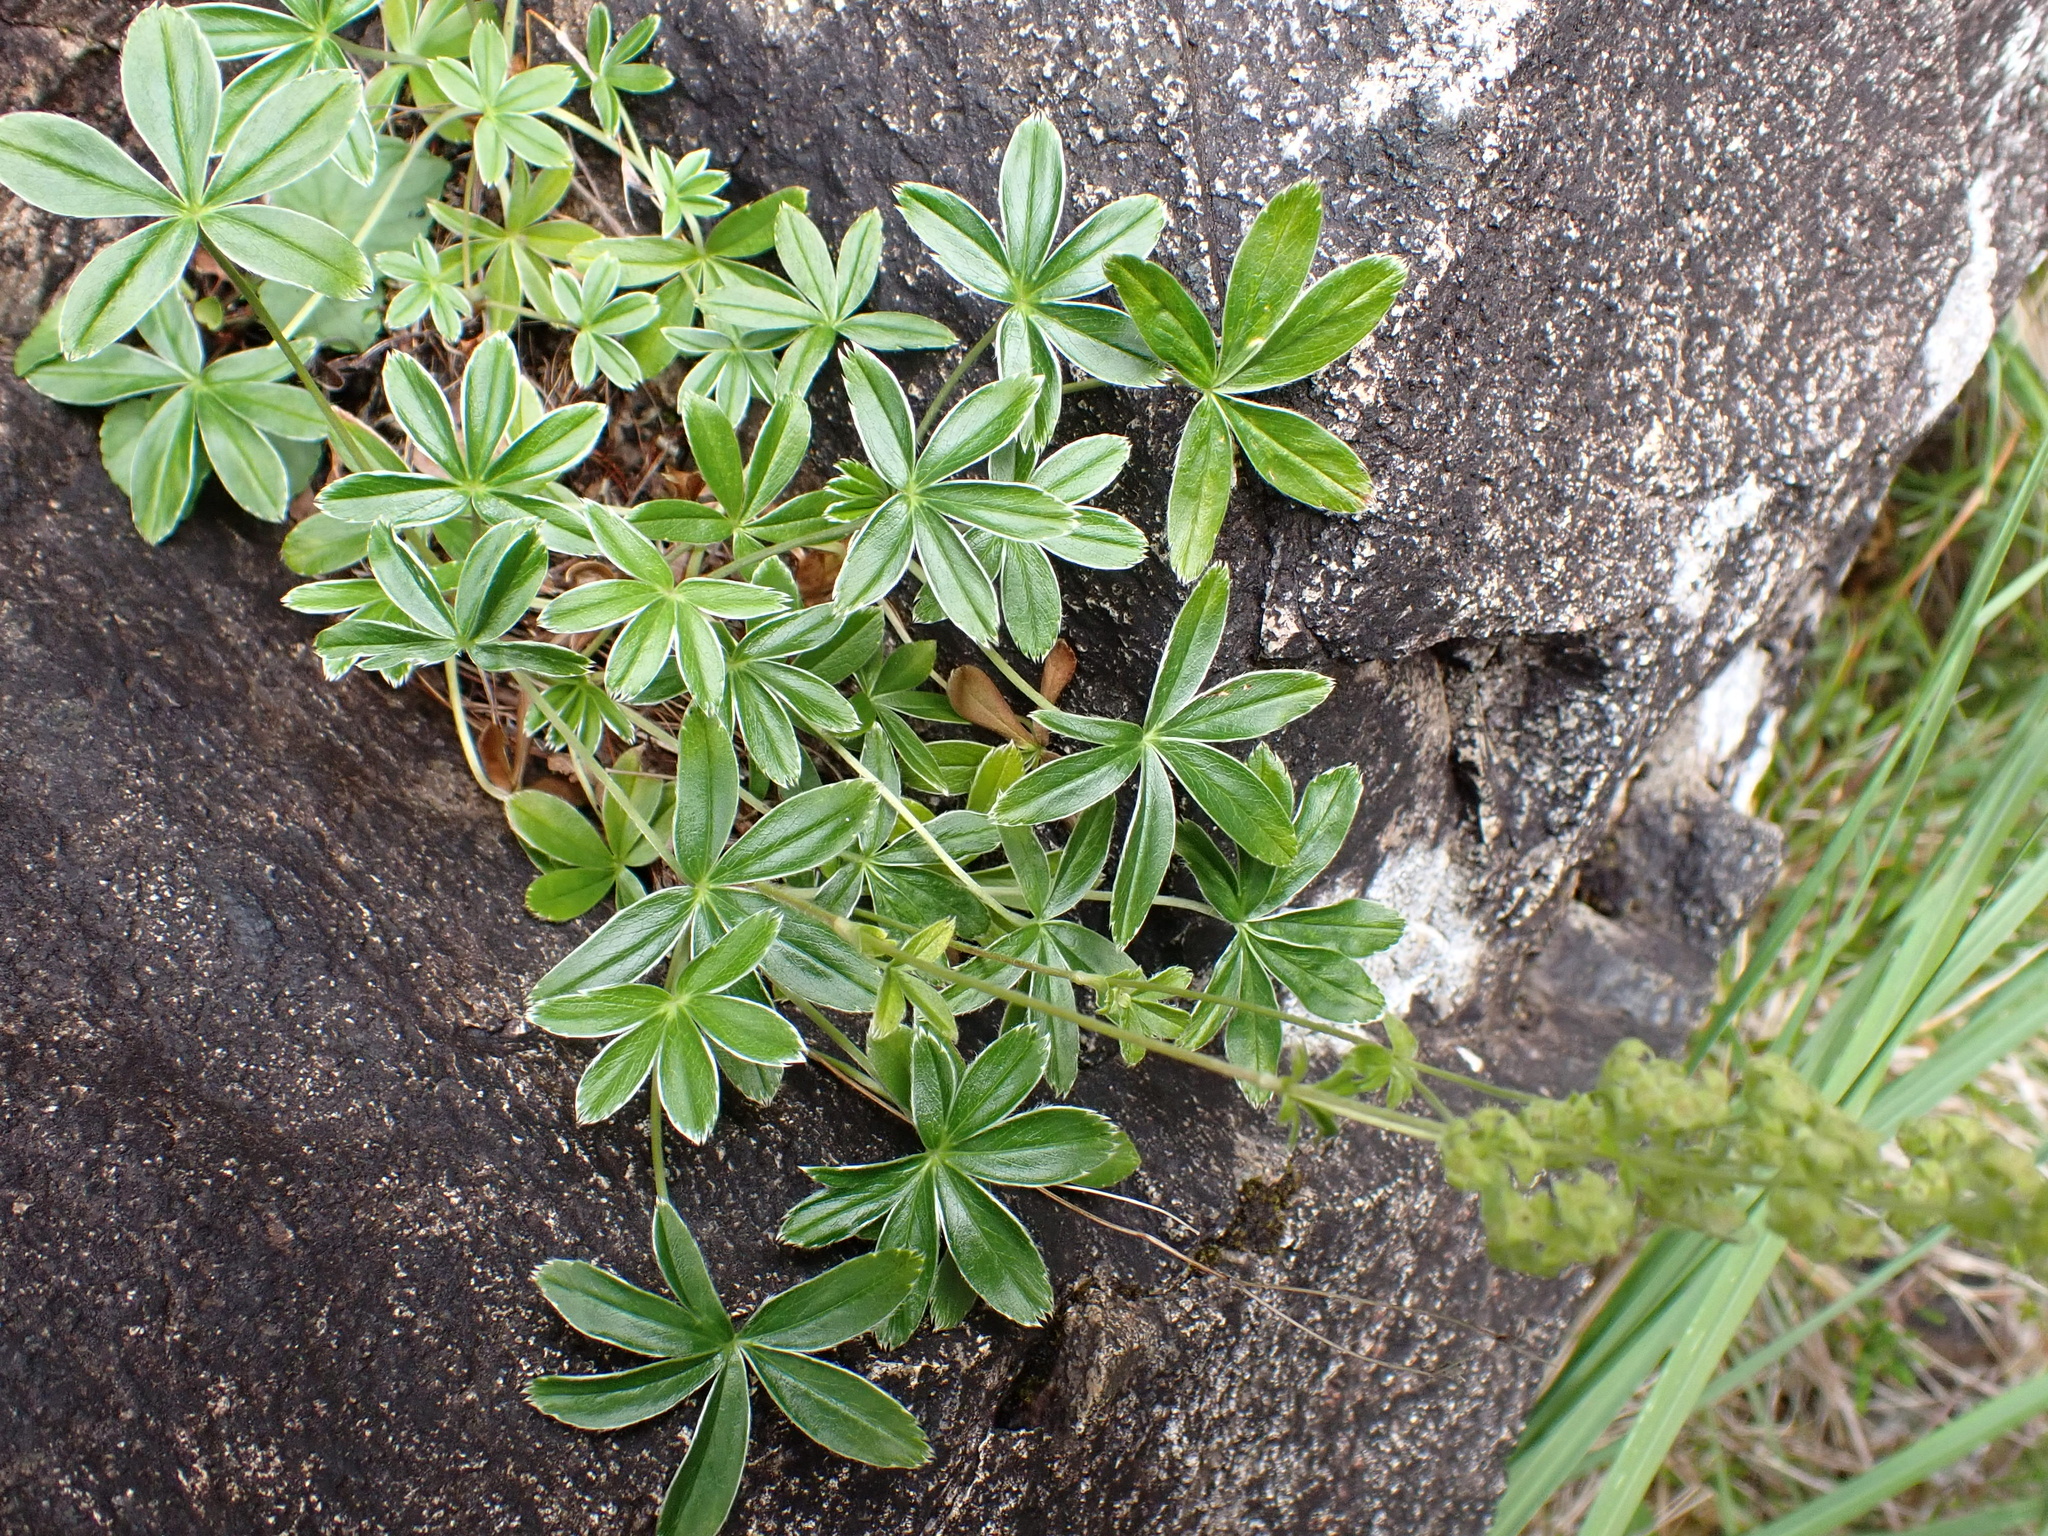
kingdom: Plantae
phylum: Tracheophyta
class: Magnoliopsida
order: Rosales
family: Rosaceae
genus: Alchemilla
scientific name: Alchemilla alpina
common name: Alpine lady's-mantle
